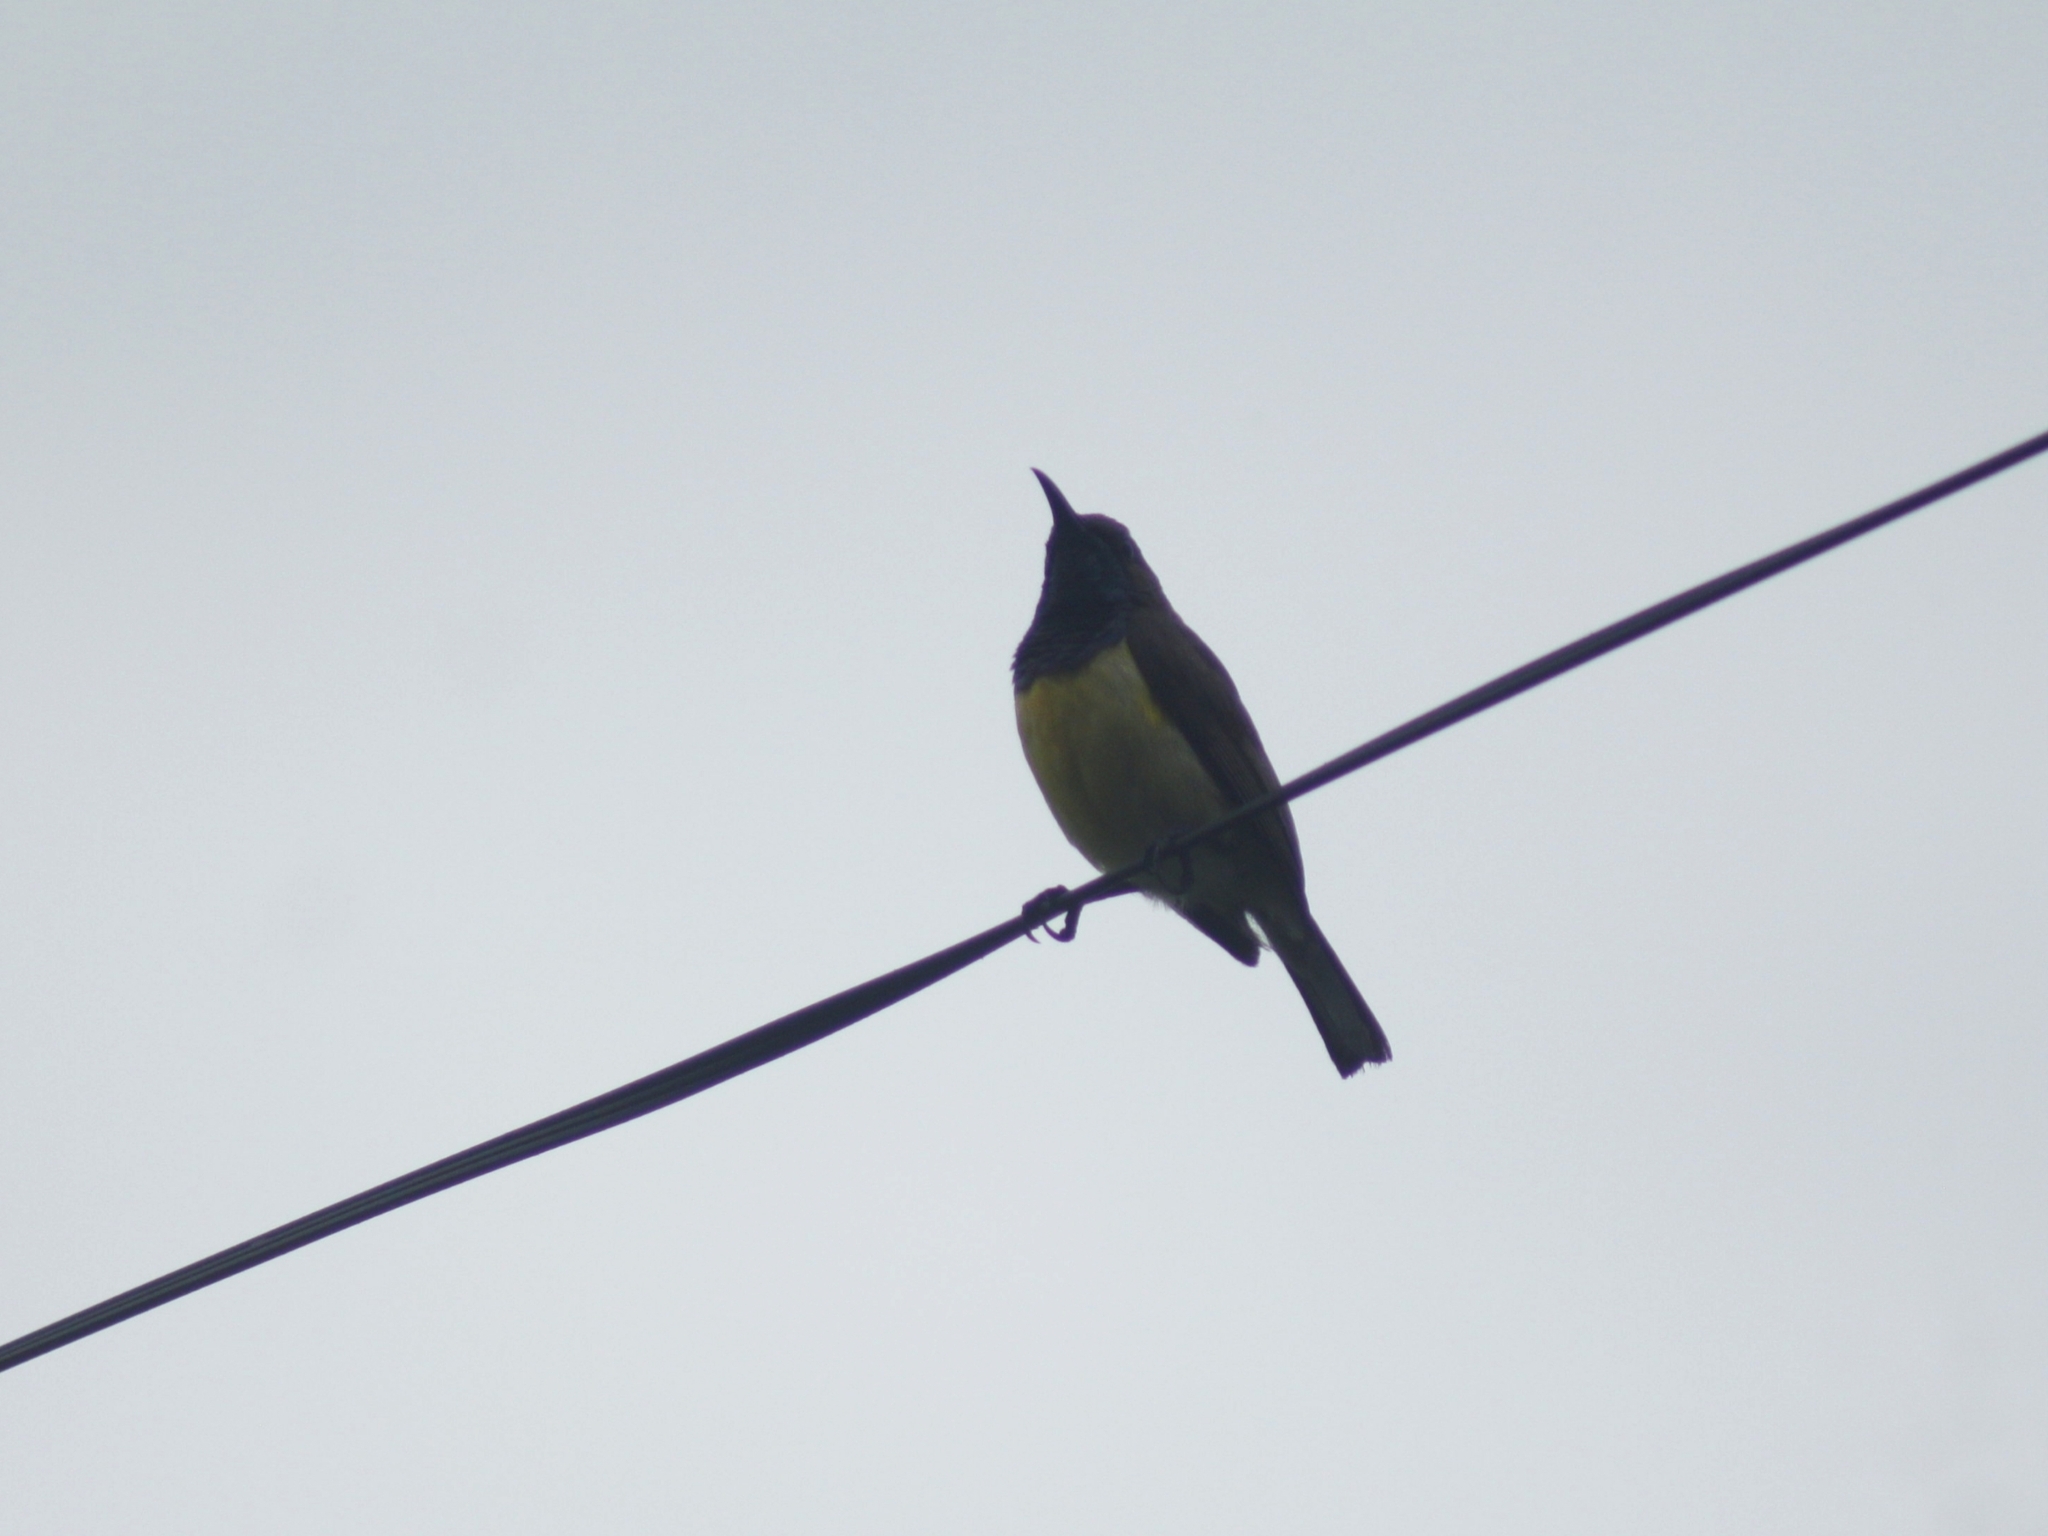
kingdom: Animalia
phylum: Chordata
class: Aves
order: Passeriformes
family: Nectariniidae
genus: Cinnyris
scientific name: Cinnyris jugularis
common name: Olive-backed sunbird
